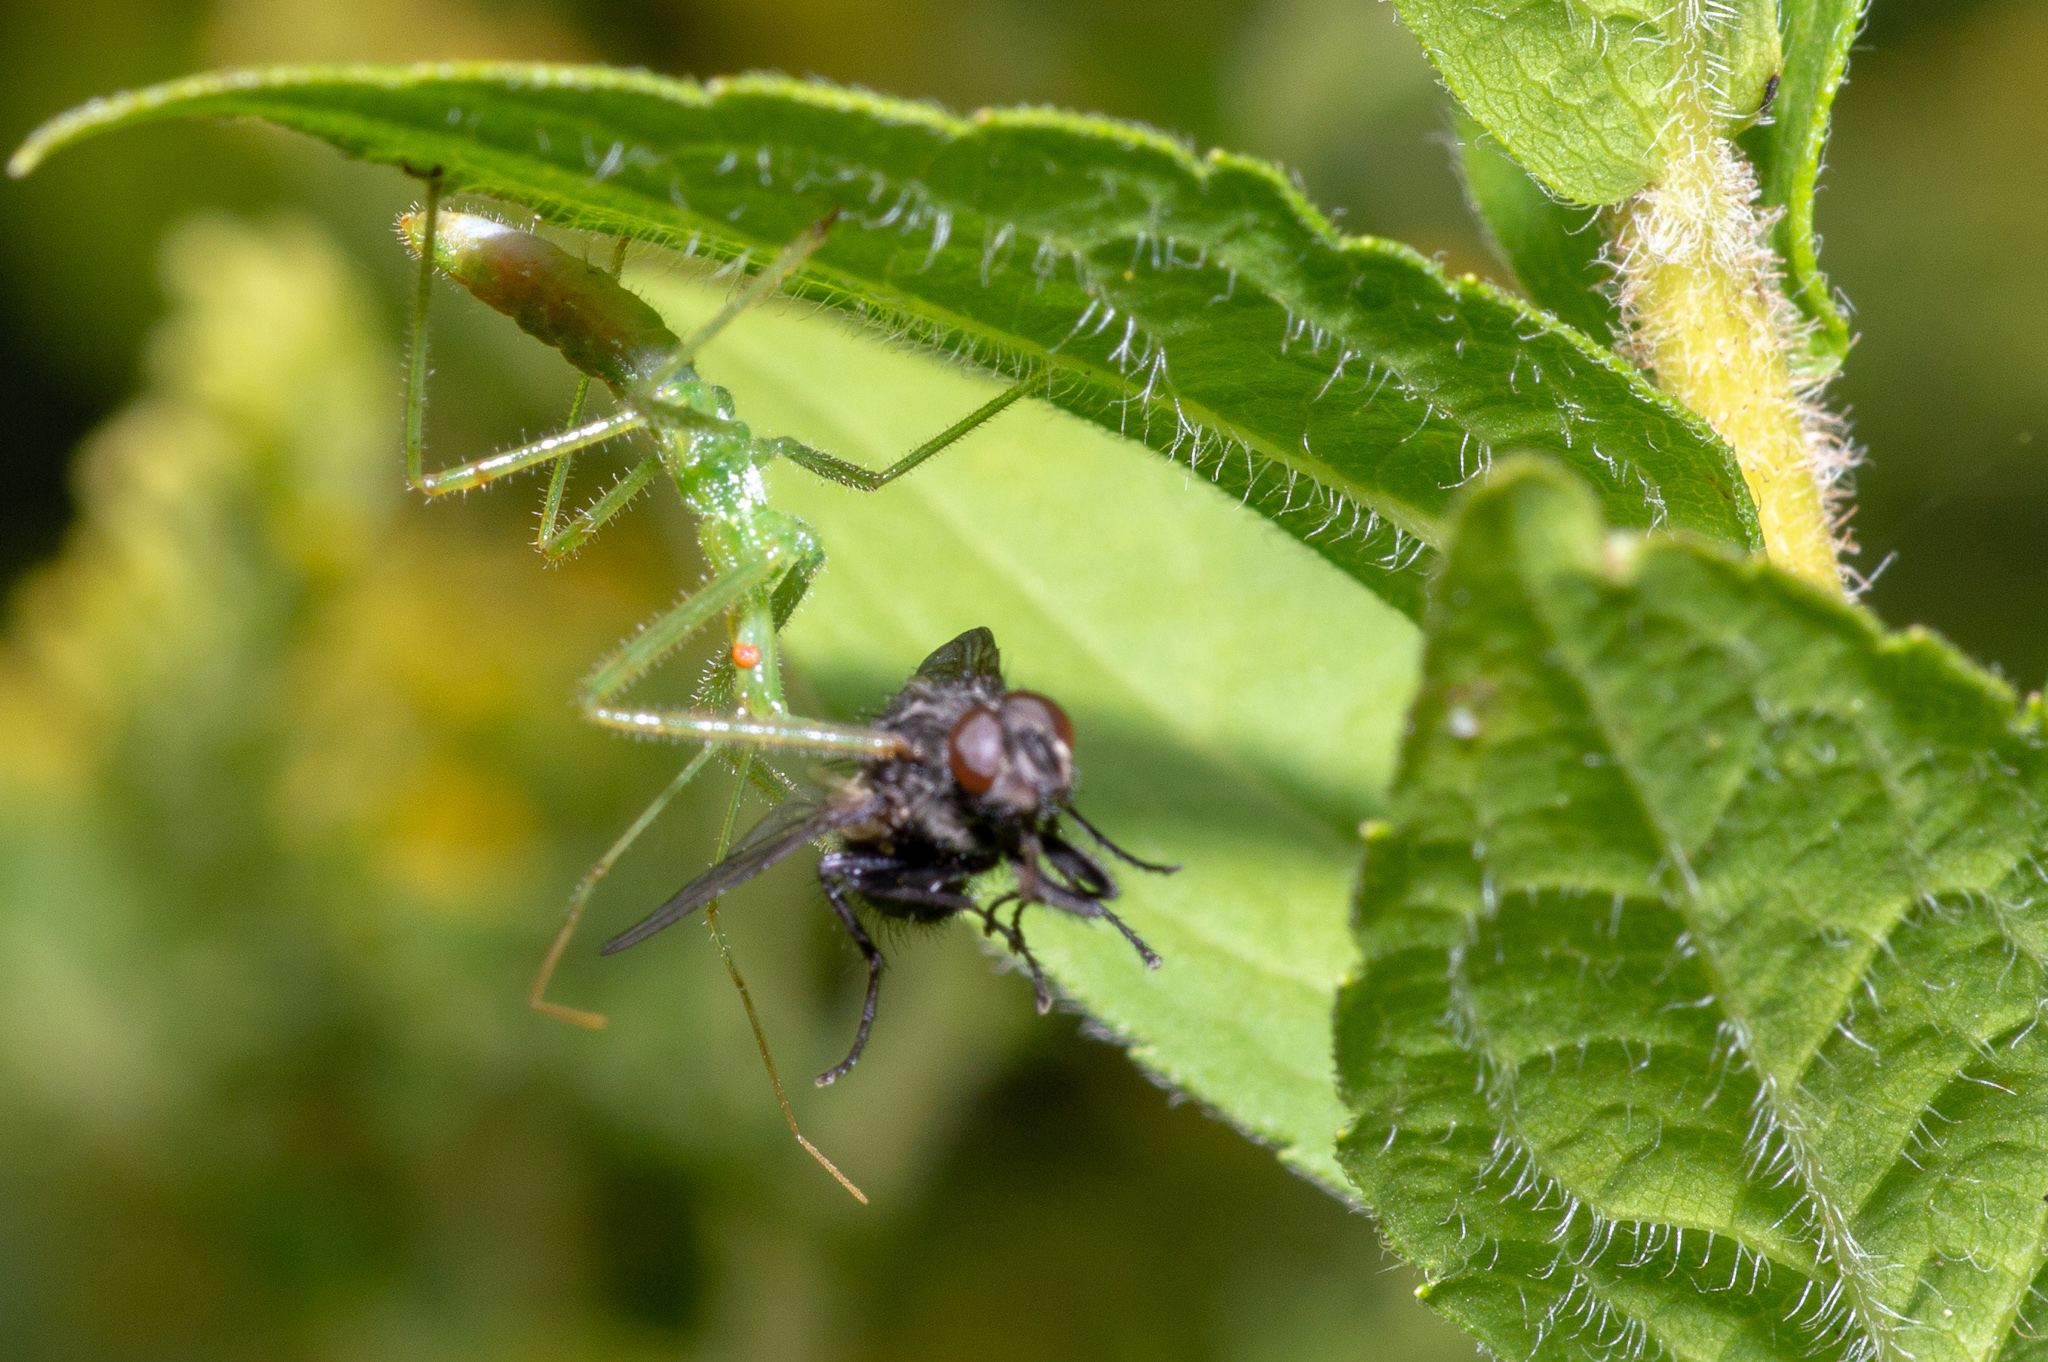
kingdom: Animalia
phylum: Arthropoda
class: Insecta
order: Hemiptera
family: Reduviidae
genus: Zelus
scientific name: Zelus luridus
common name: Pale green assassin bug
